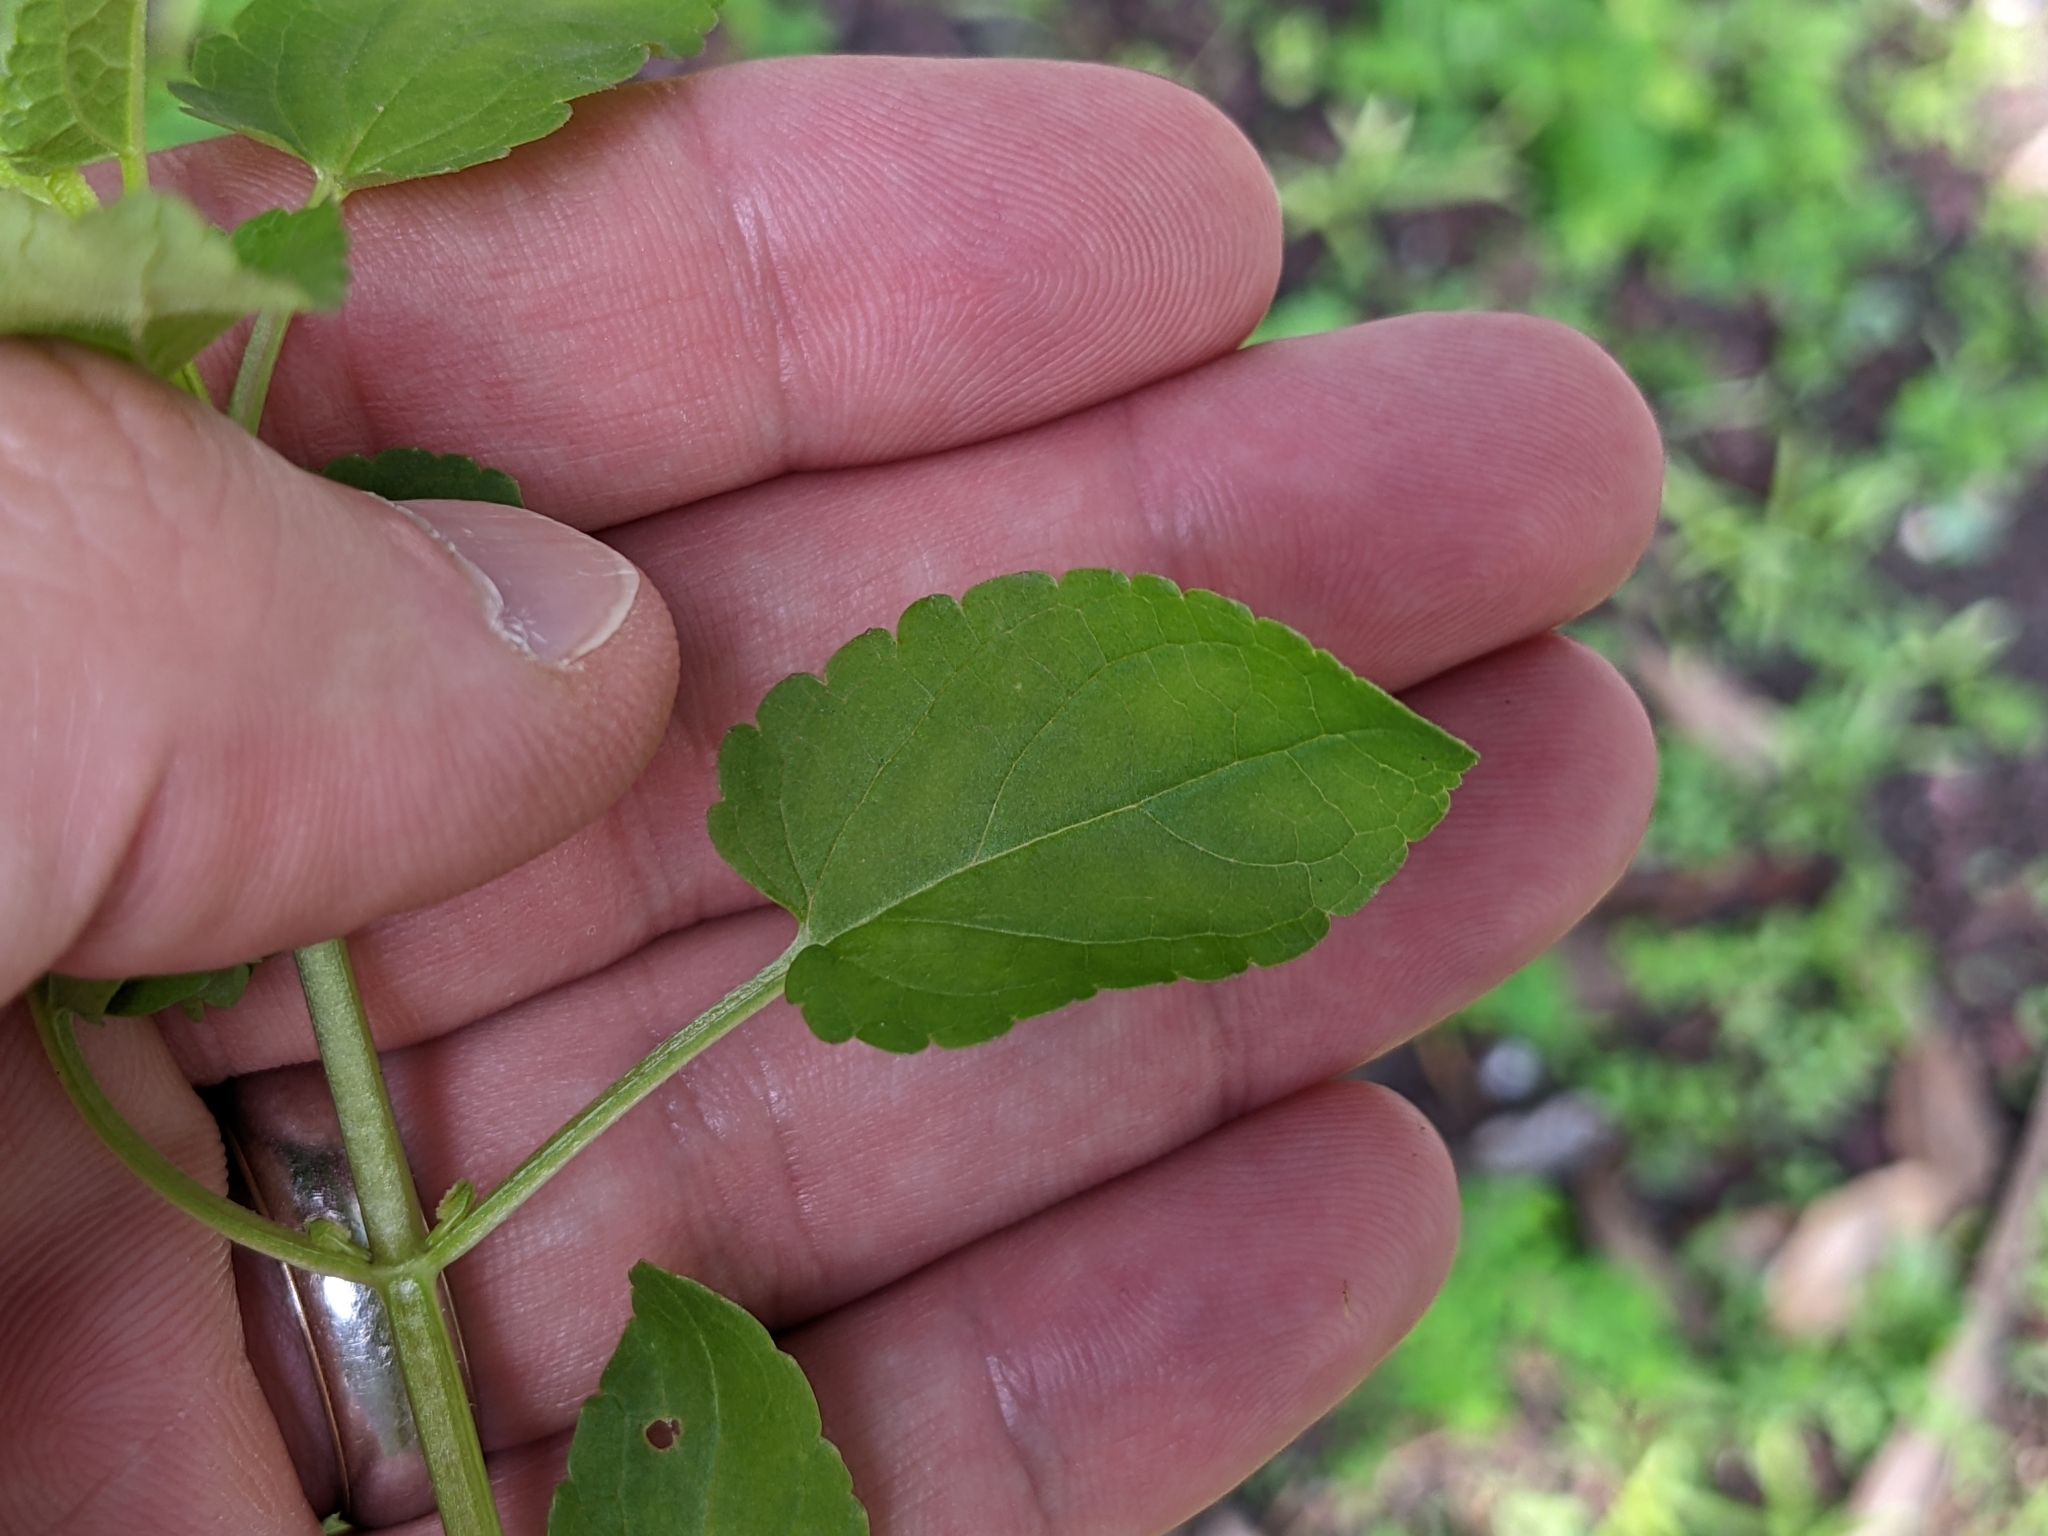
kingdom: Plantae
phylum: Tracheophyta
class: Magnoliopsida
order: Lamiales
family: Lamiaceae
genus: Stachys
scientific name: Stachys floridana
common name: Florida betony
